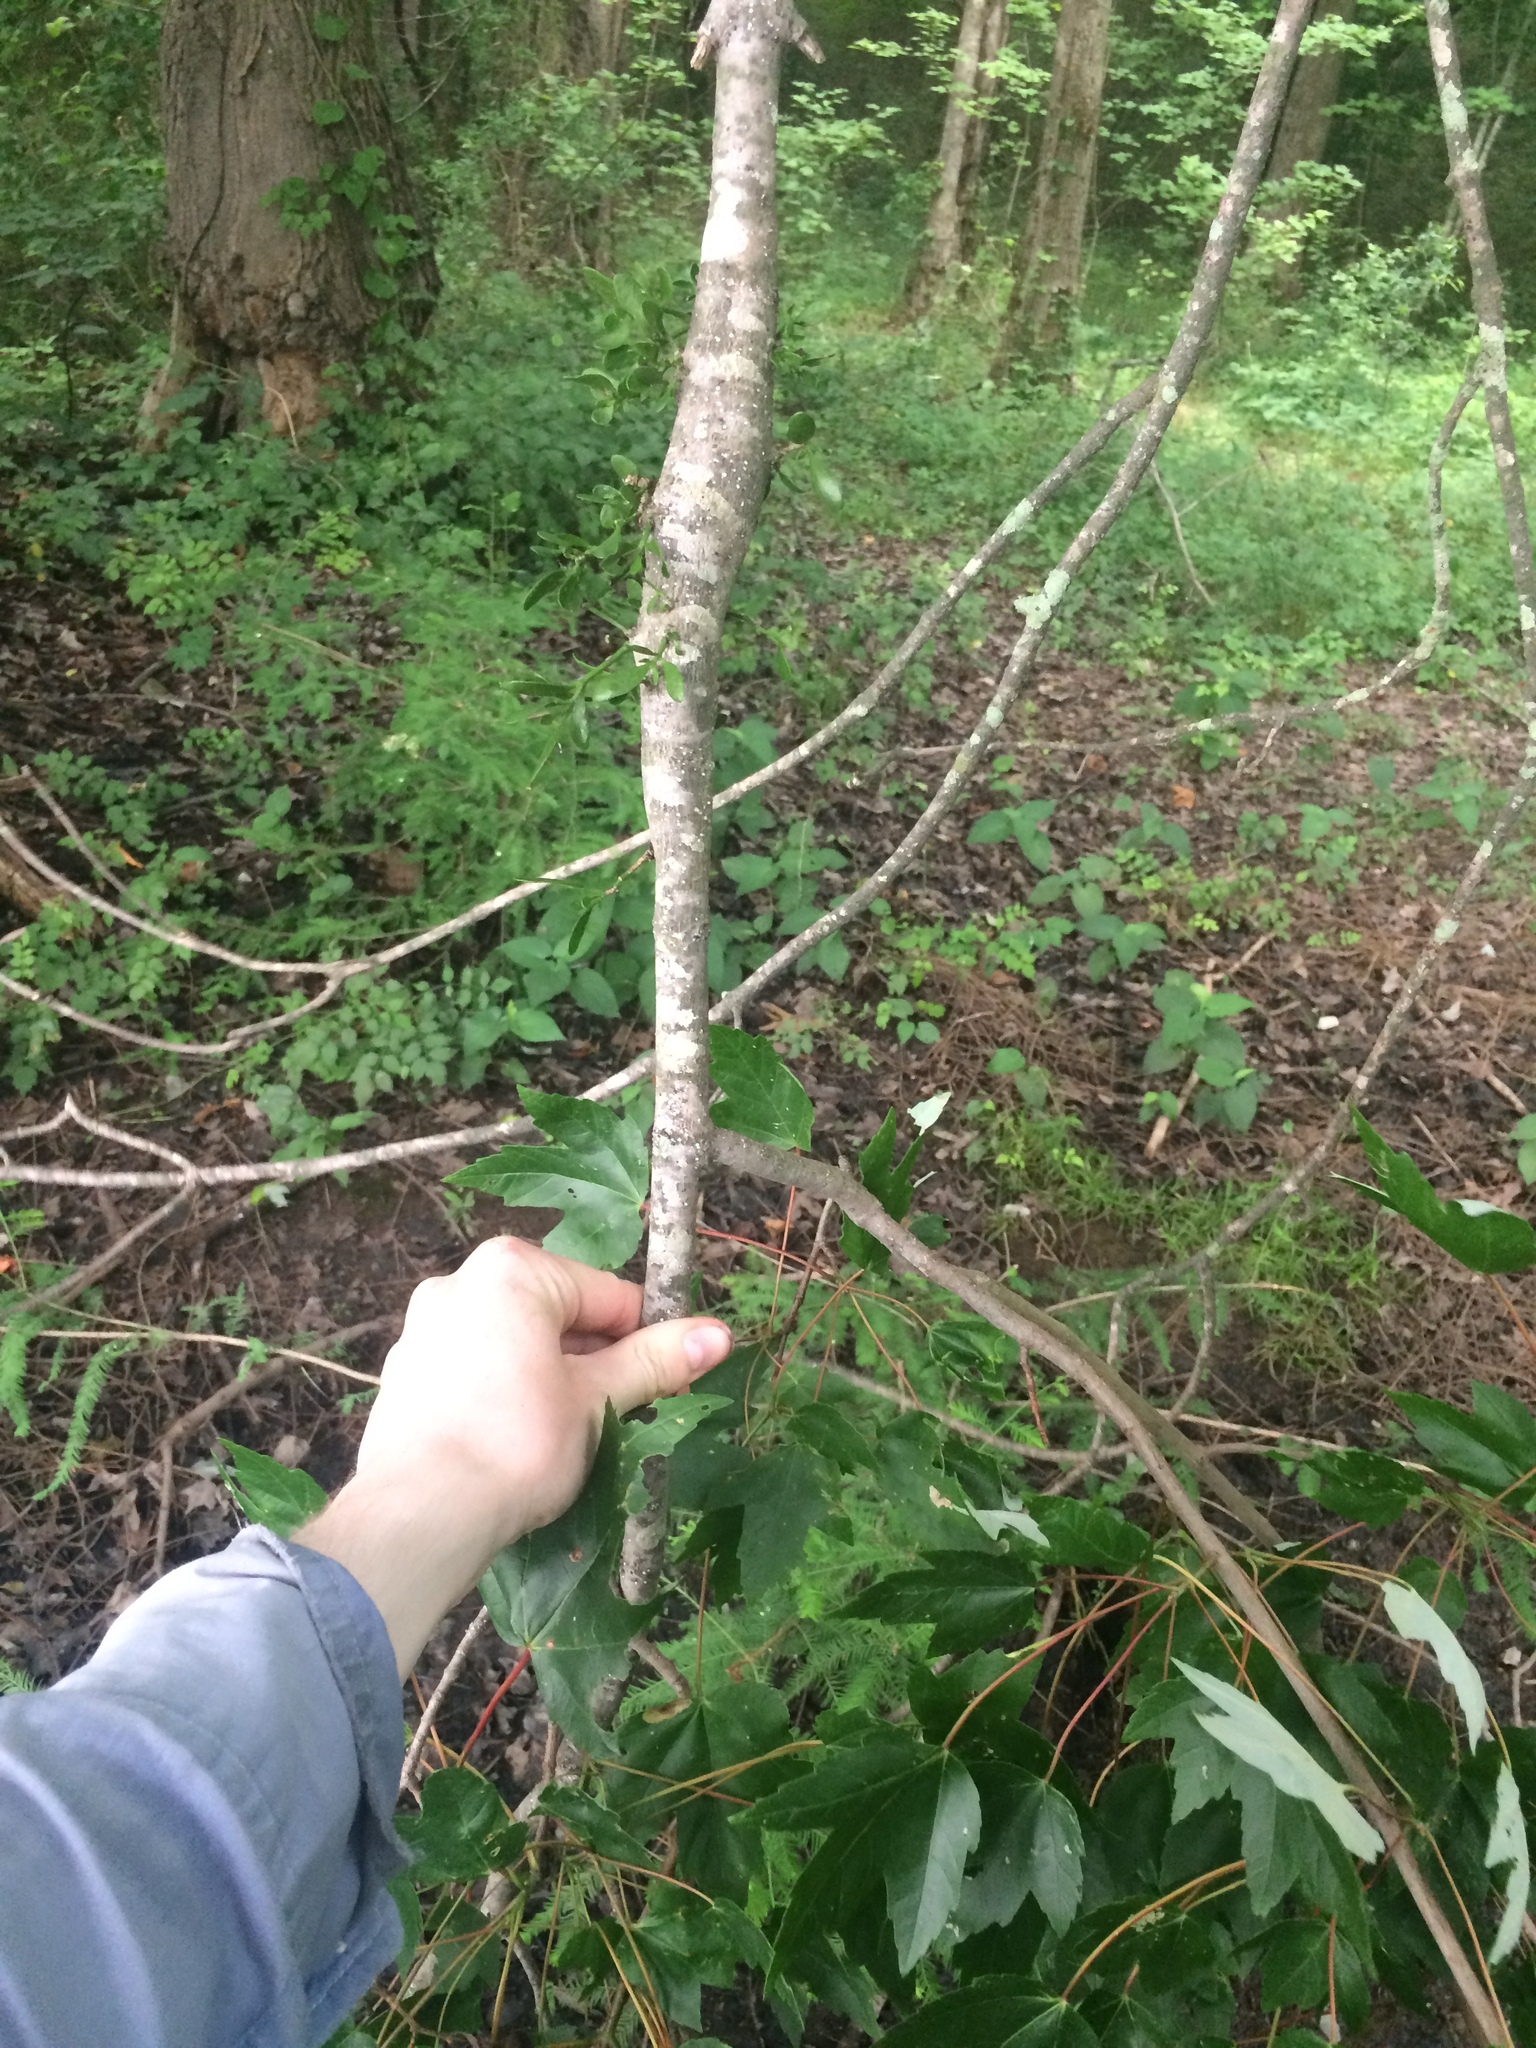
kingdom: Plantae
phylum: Tracheophyta
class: Magnoliopsida
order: Sapindales
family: Sapindaceae
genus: Acer
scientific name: Acer rubrum
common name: Red maple
